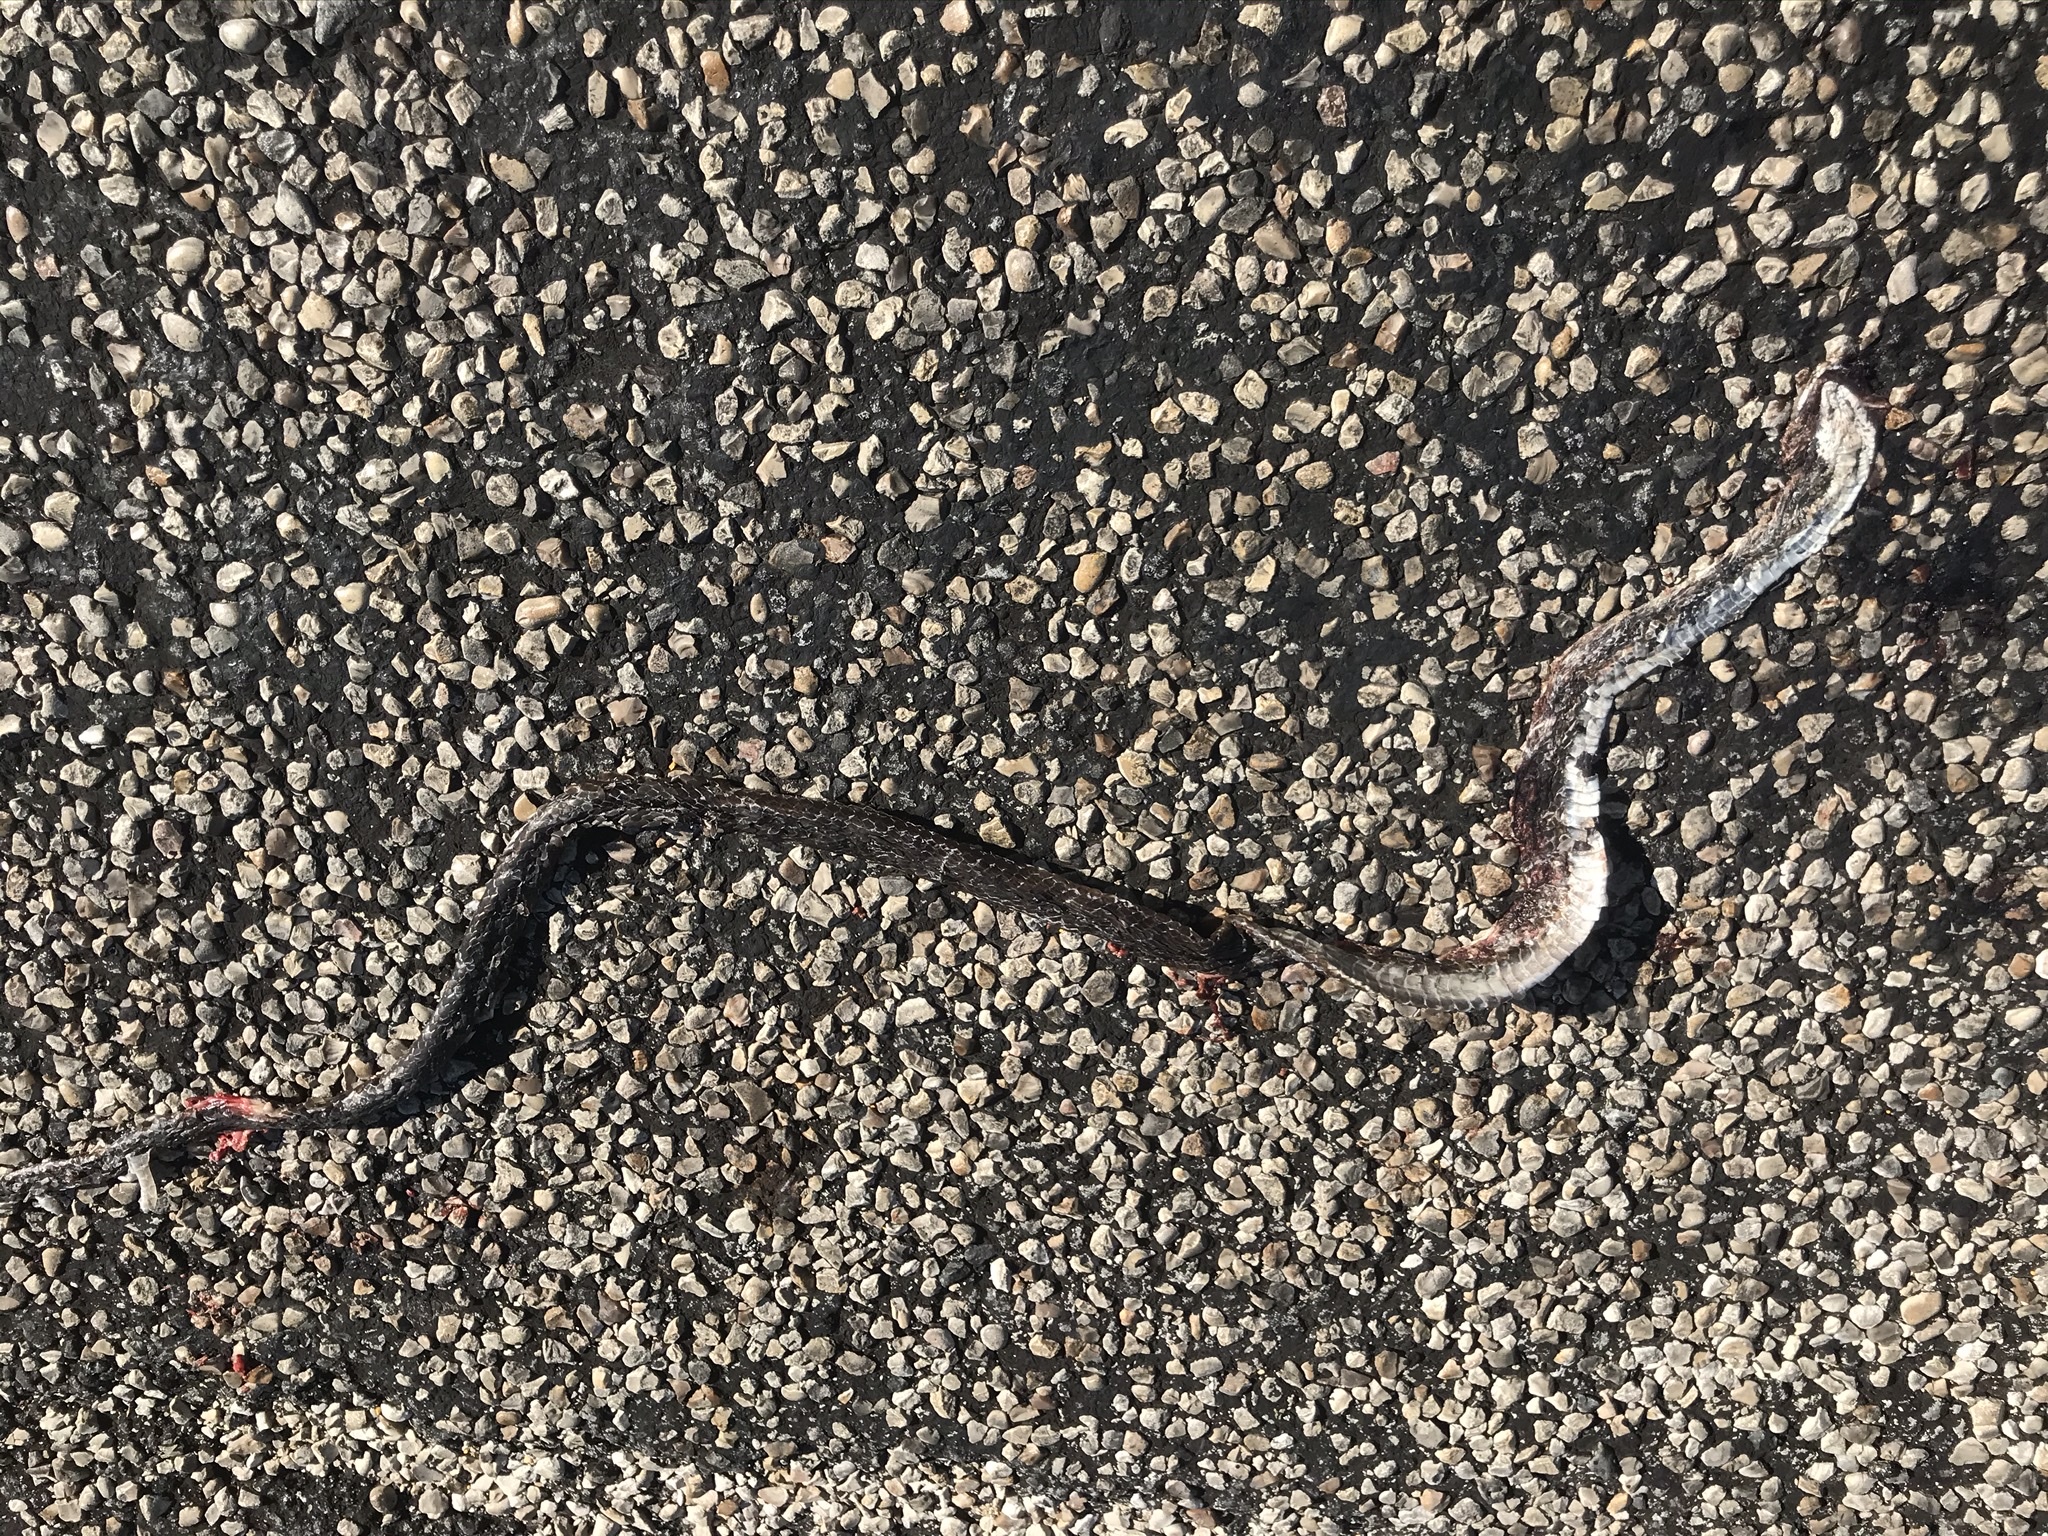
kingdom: Animalia
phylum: Chordata
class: Squamata
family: Colubridae
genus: Masticophis
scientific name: Masticophis taeniatus
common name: Striped whipsnake
